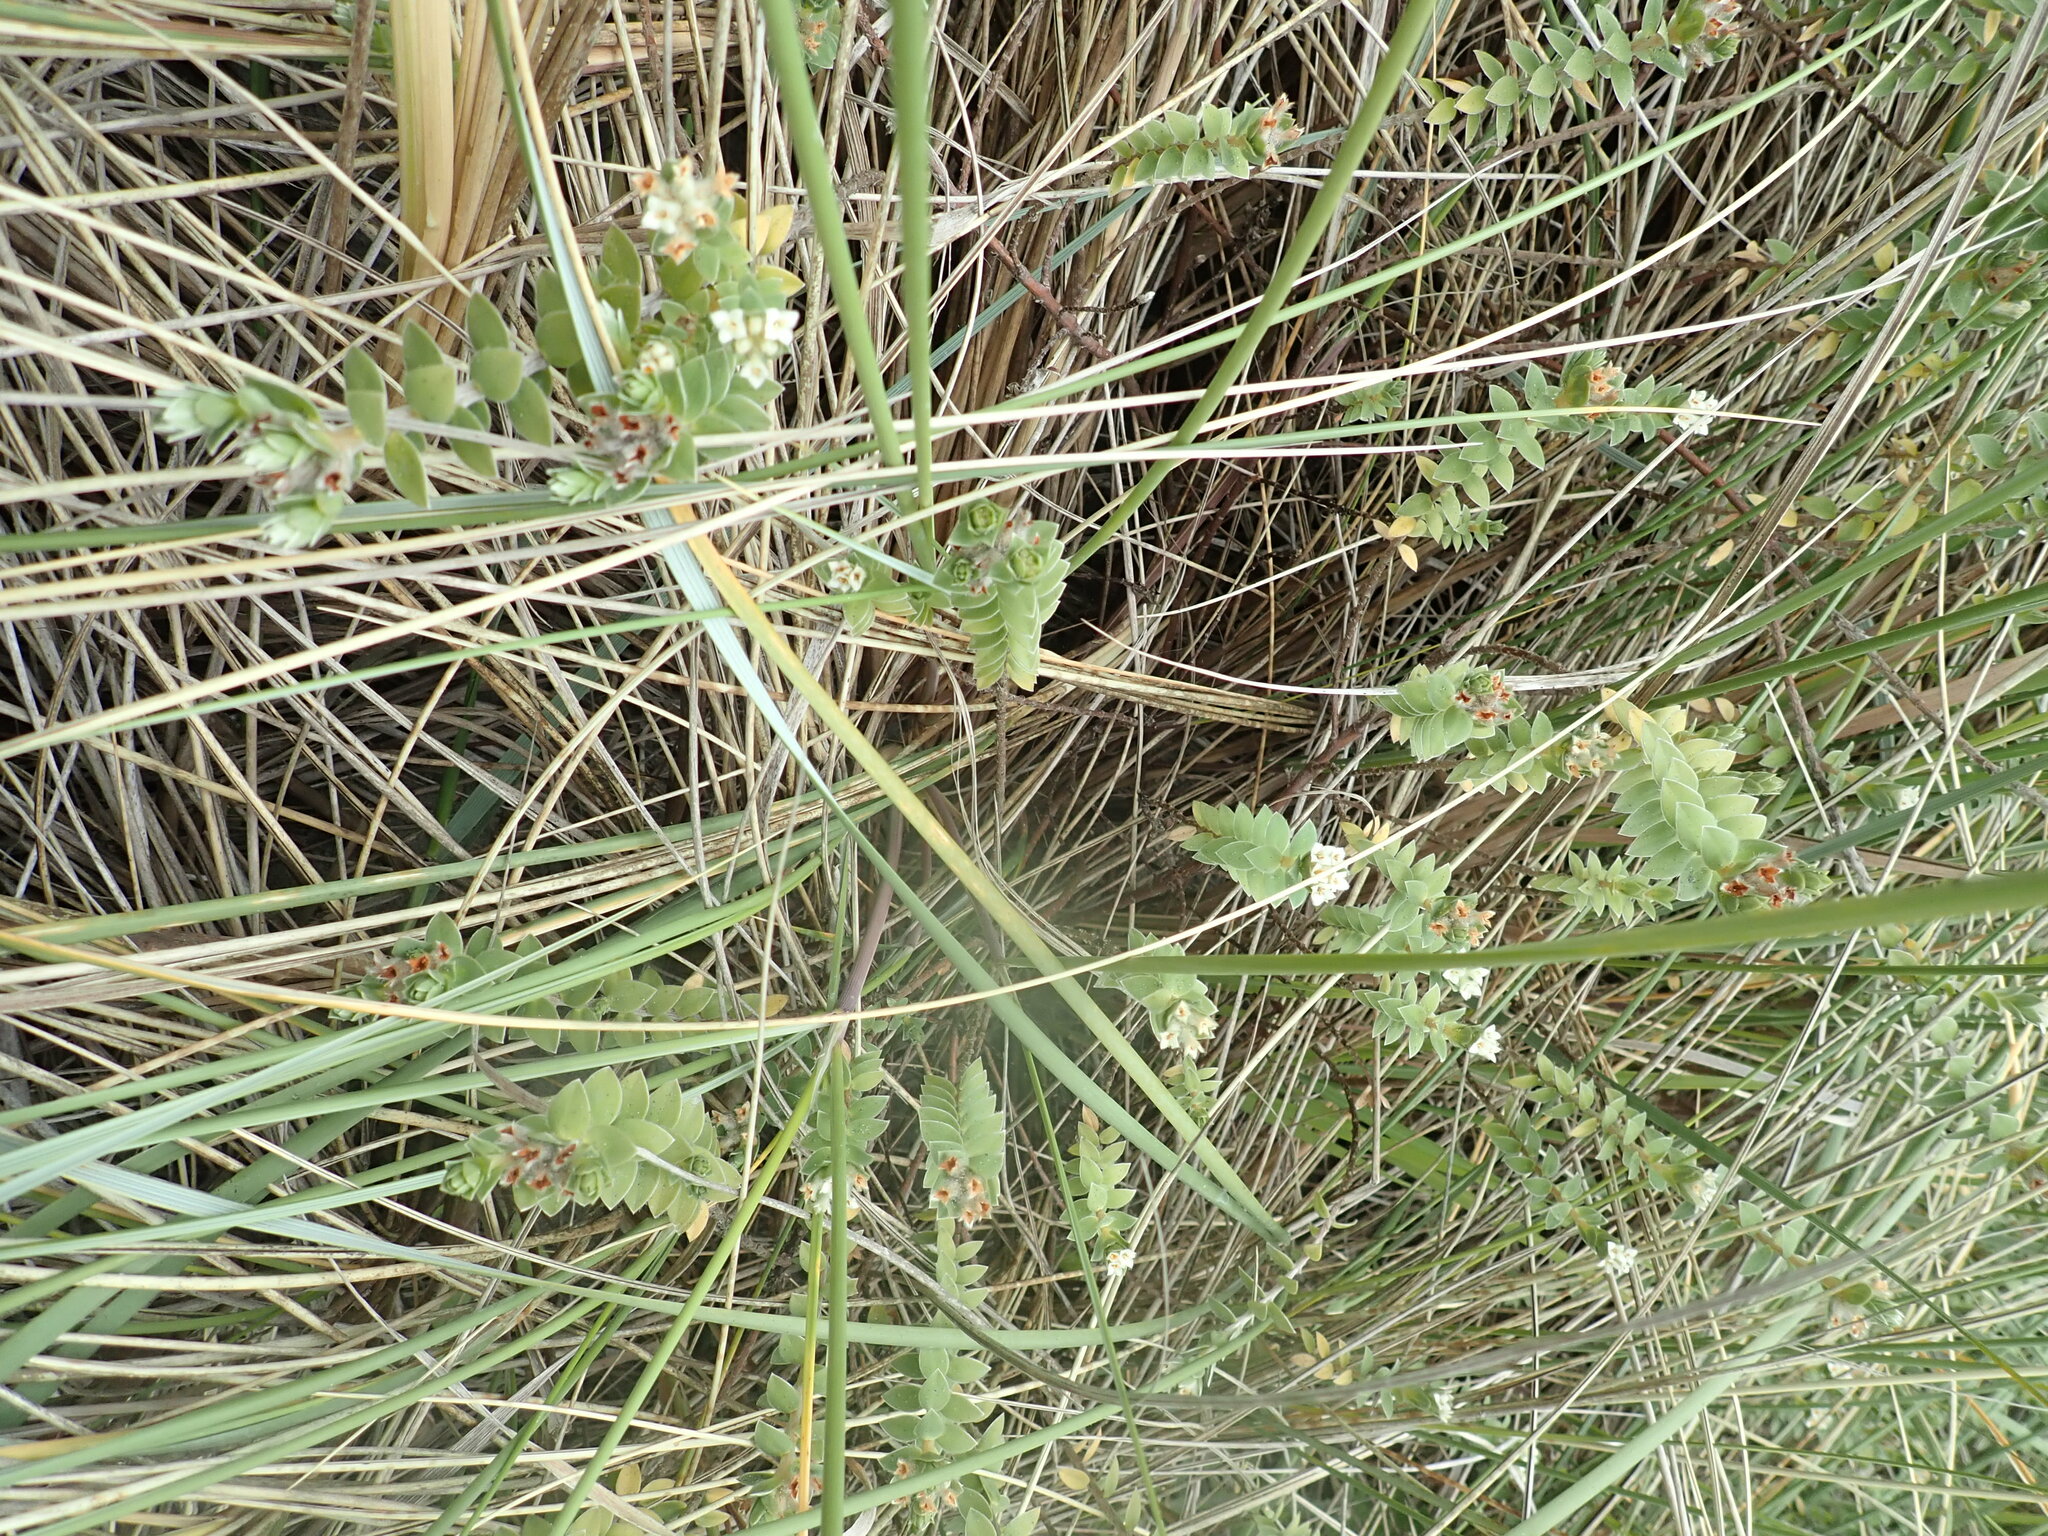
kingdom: Plantae
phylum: Tracheophyta
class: Magnoliopsida
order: Malvales
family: Thymelaeaceae
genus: Pimelea
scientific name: Pimelea villosa
